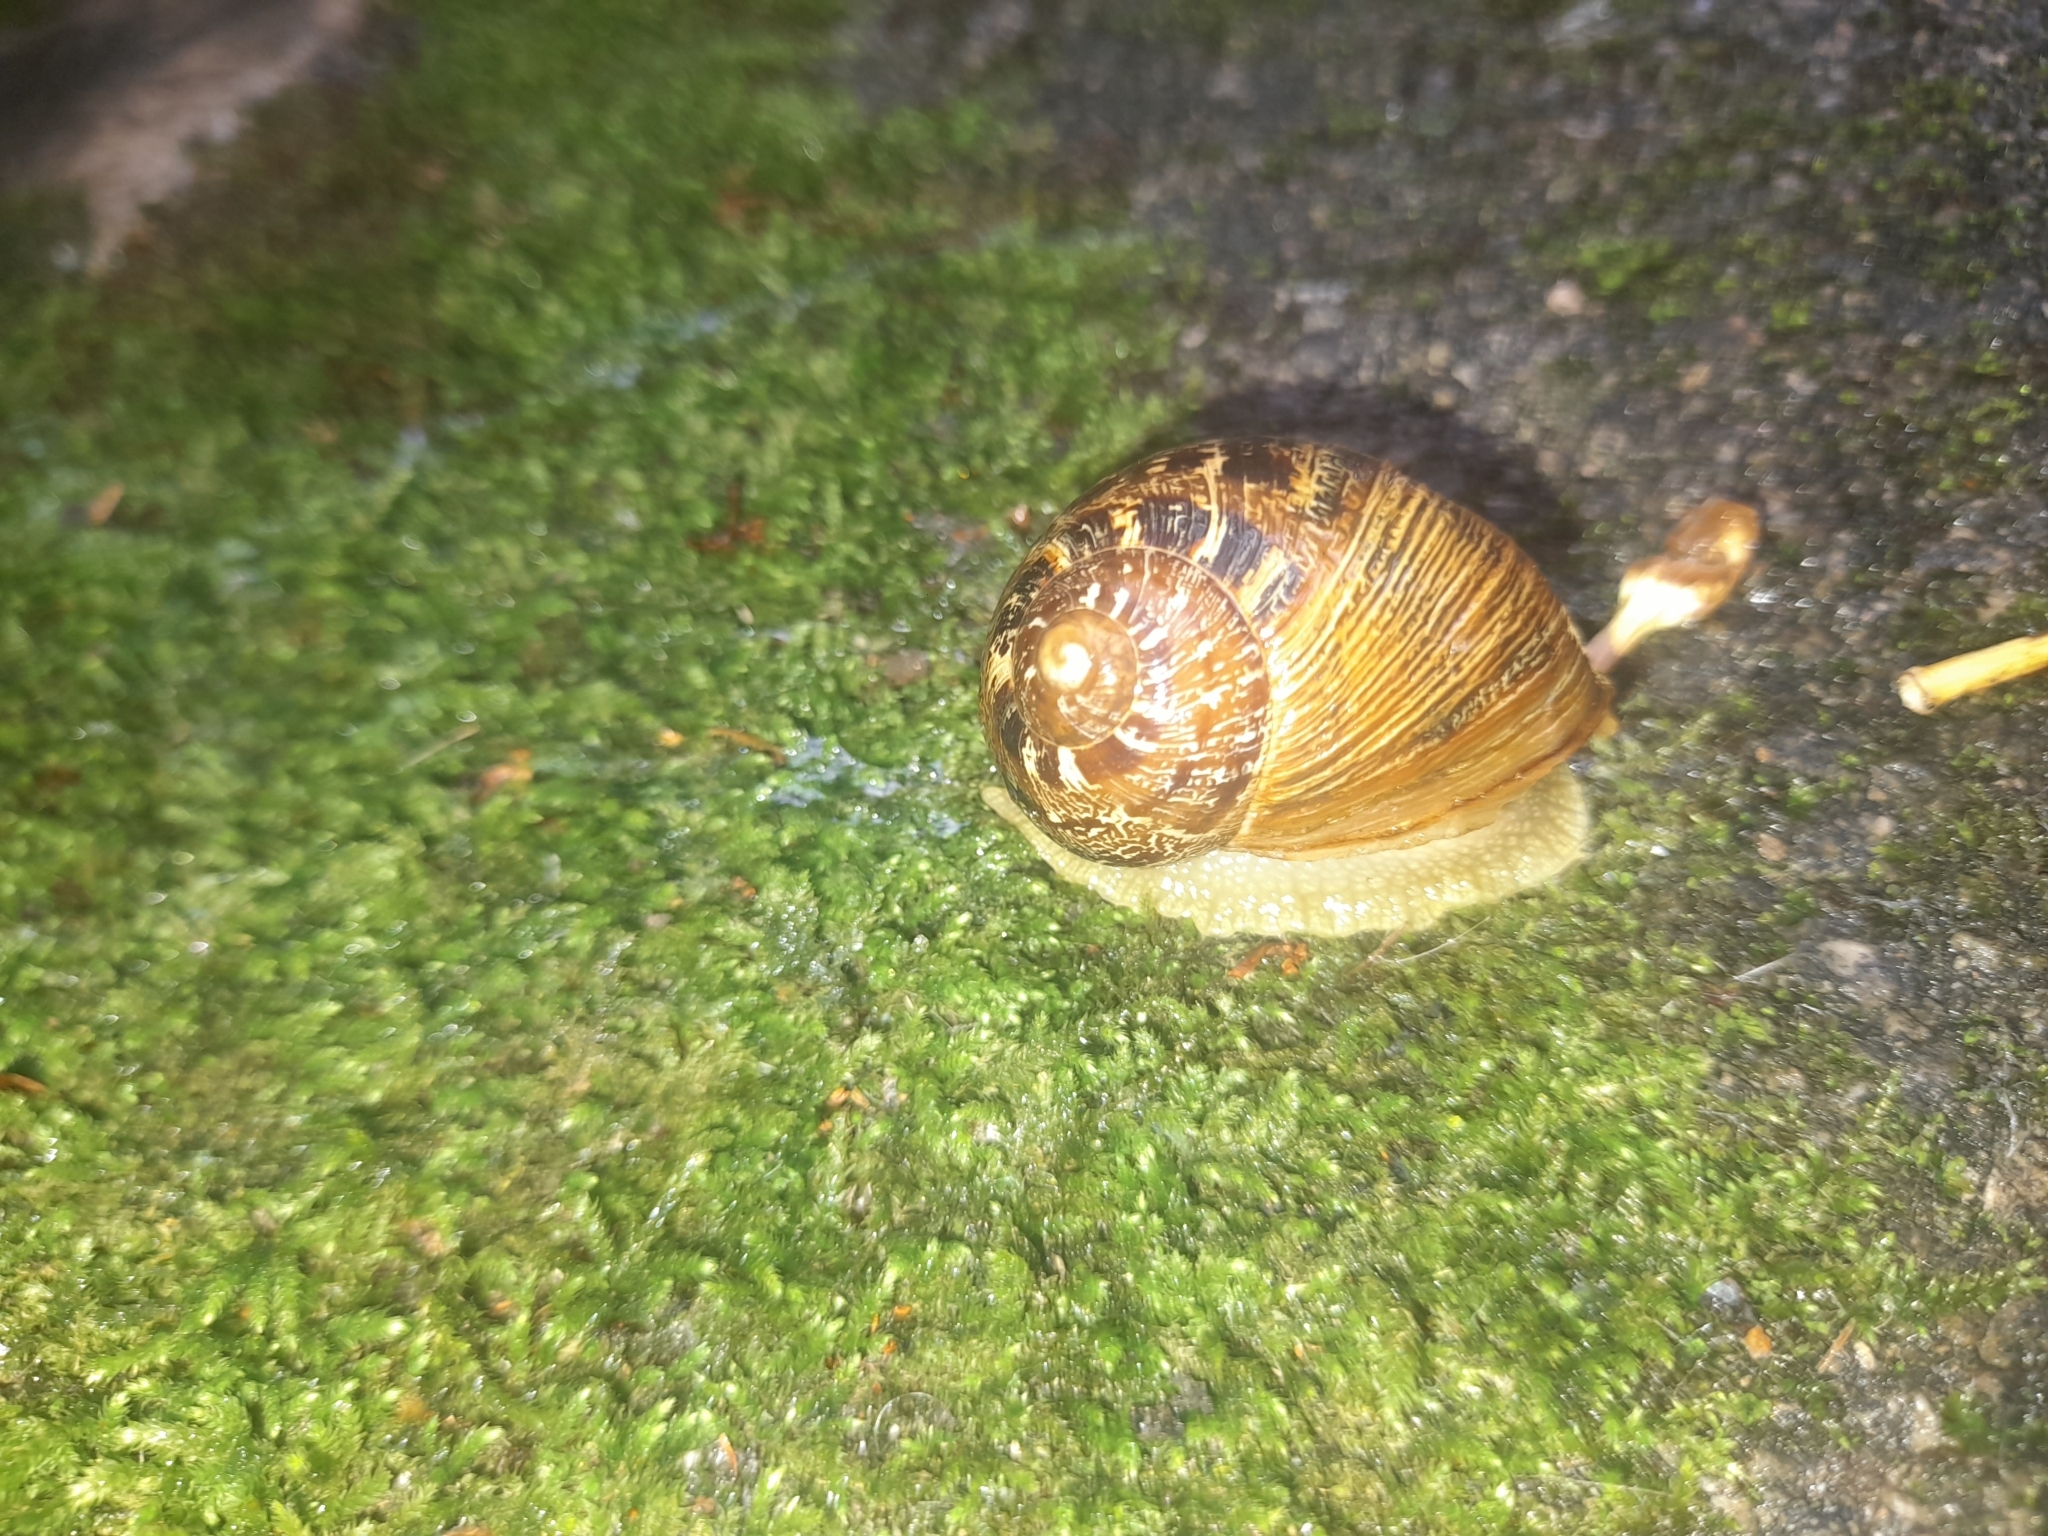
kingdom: Animalia
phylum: Mollusca
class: Gastropoda
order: Stylommatophora
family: Helicidae
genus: Cornu
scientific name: Cornu aspersum
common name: Brown garden snail
